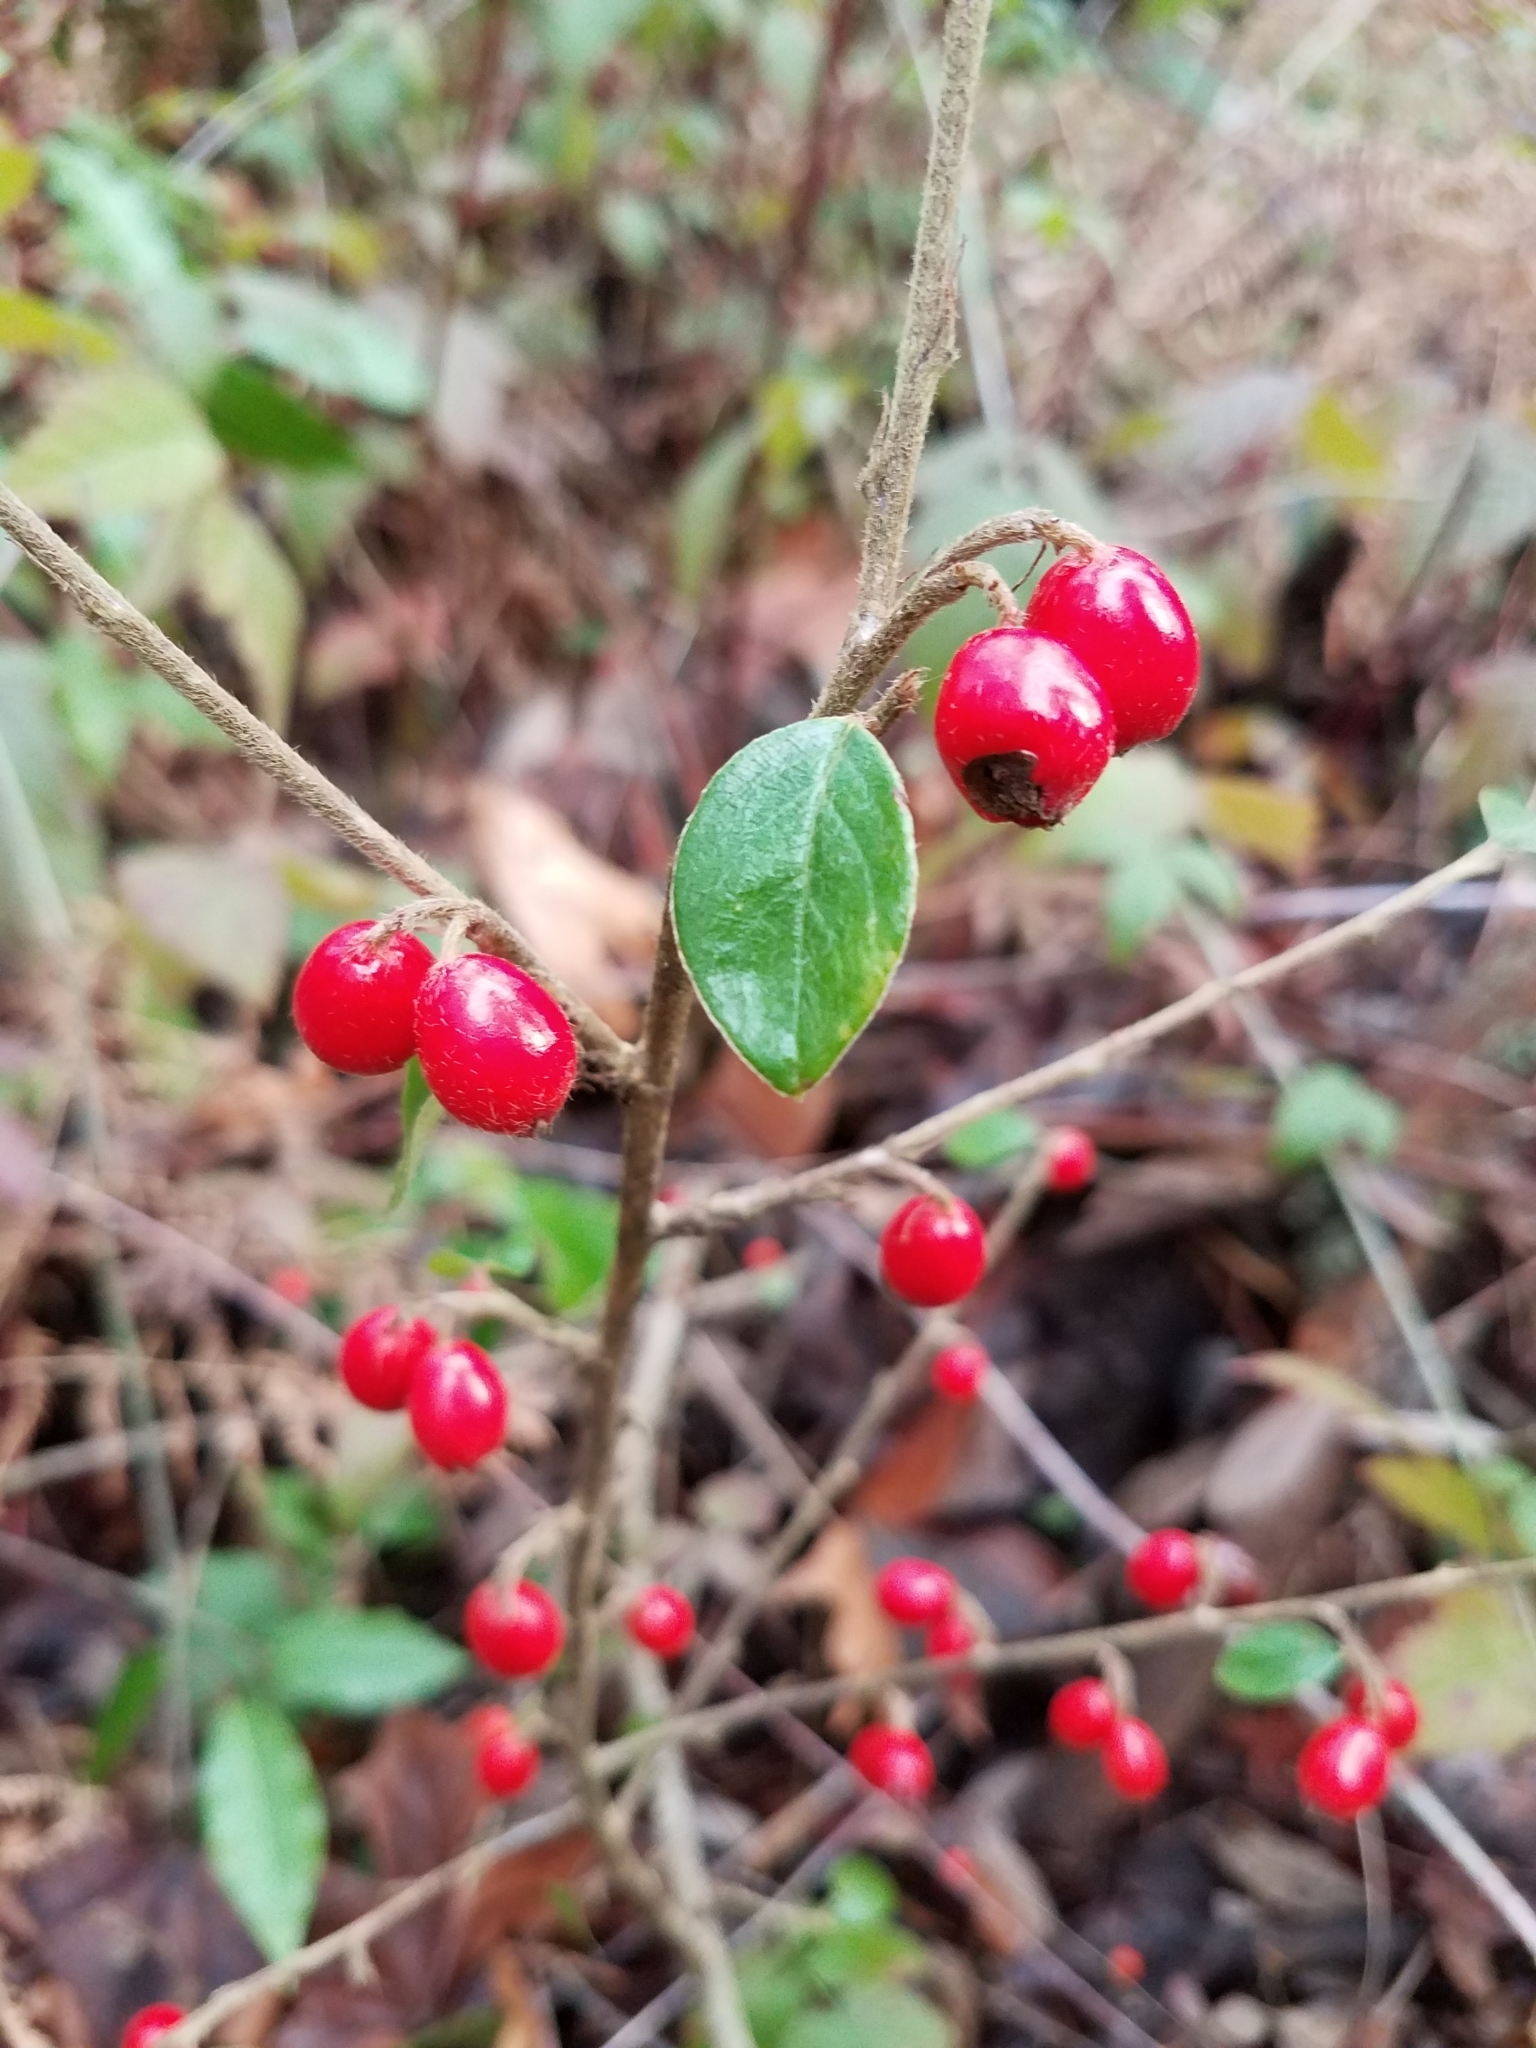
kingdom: Plantae
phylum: Tracheophyta
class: Magnoliopsida
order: Rosales
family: Rosaceae
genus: Cotoneaster
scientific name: Cotoneaster franchetii
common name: Franchet's cotoneaster
